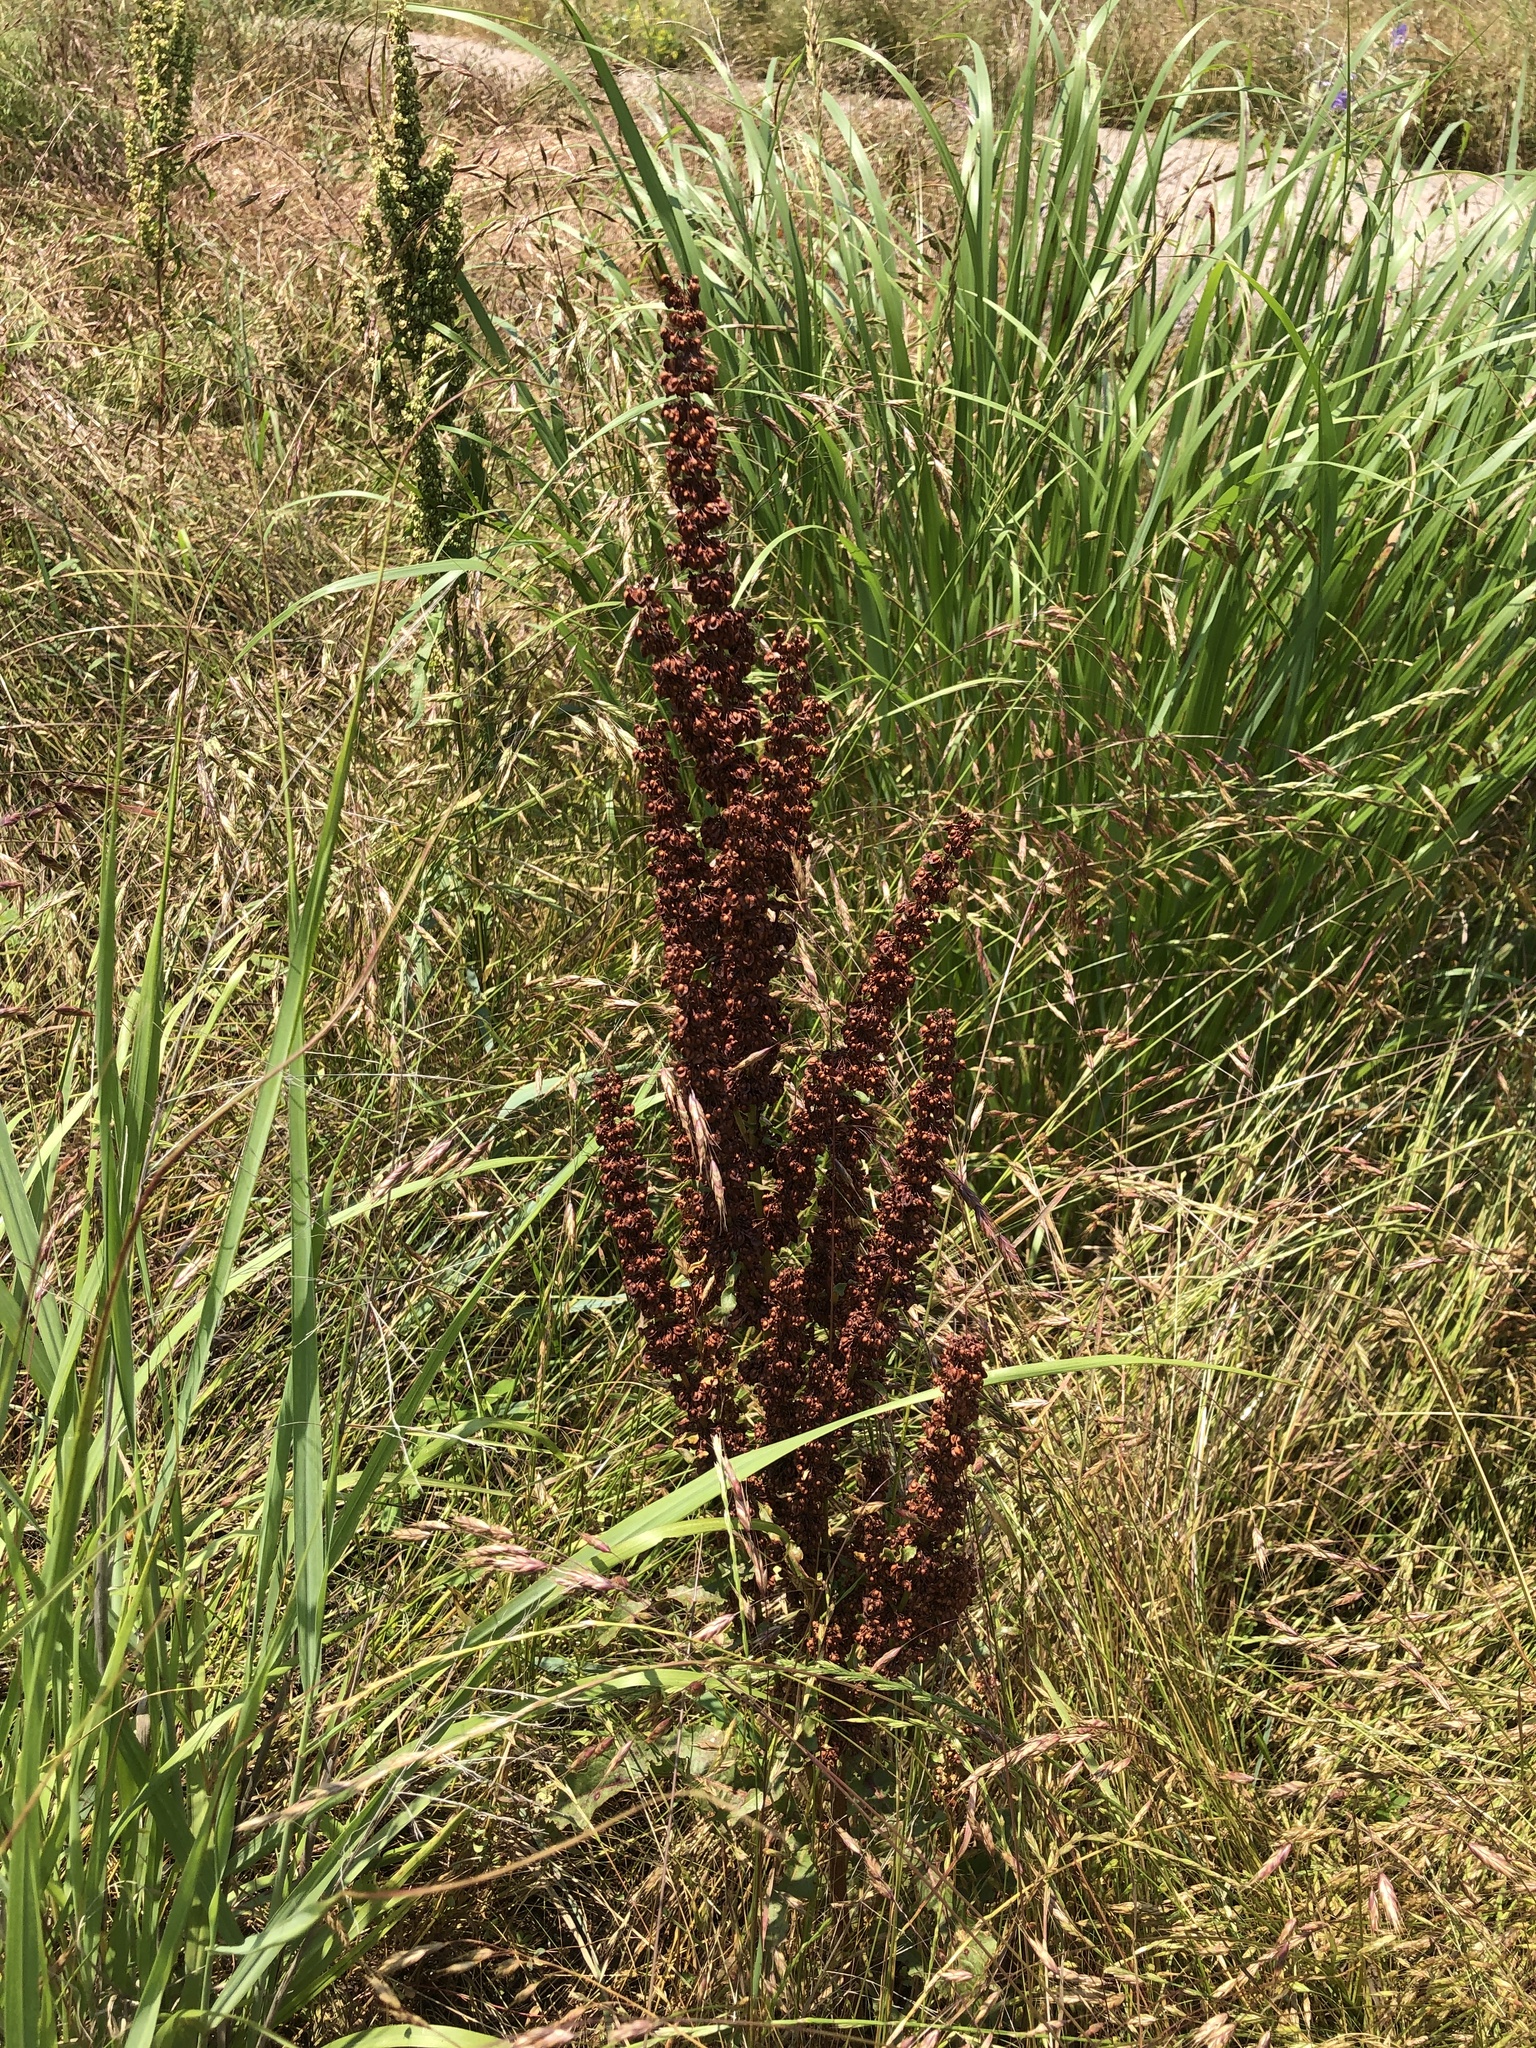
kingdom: Plantae
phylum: Tracheophyta
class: Magnoliopsida
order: Caryophyllales
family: Polygonaceae
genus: Rumex
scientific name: Rumex crispus
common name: Curled dock
